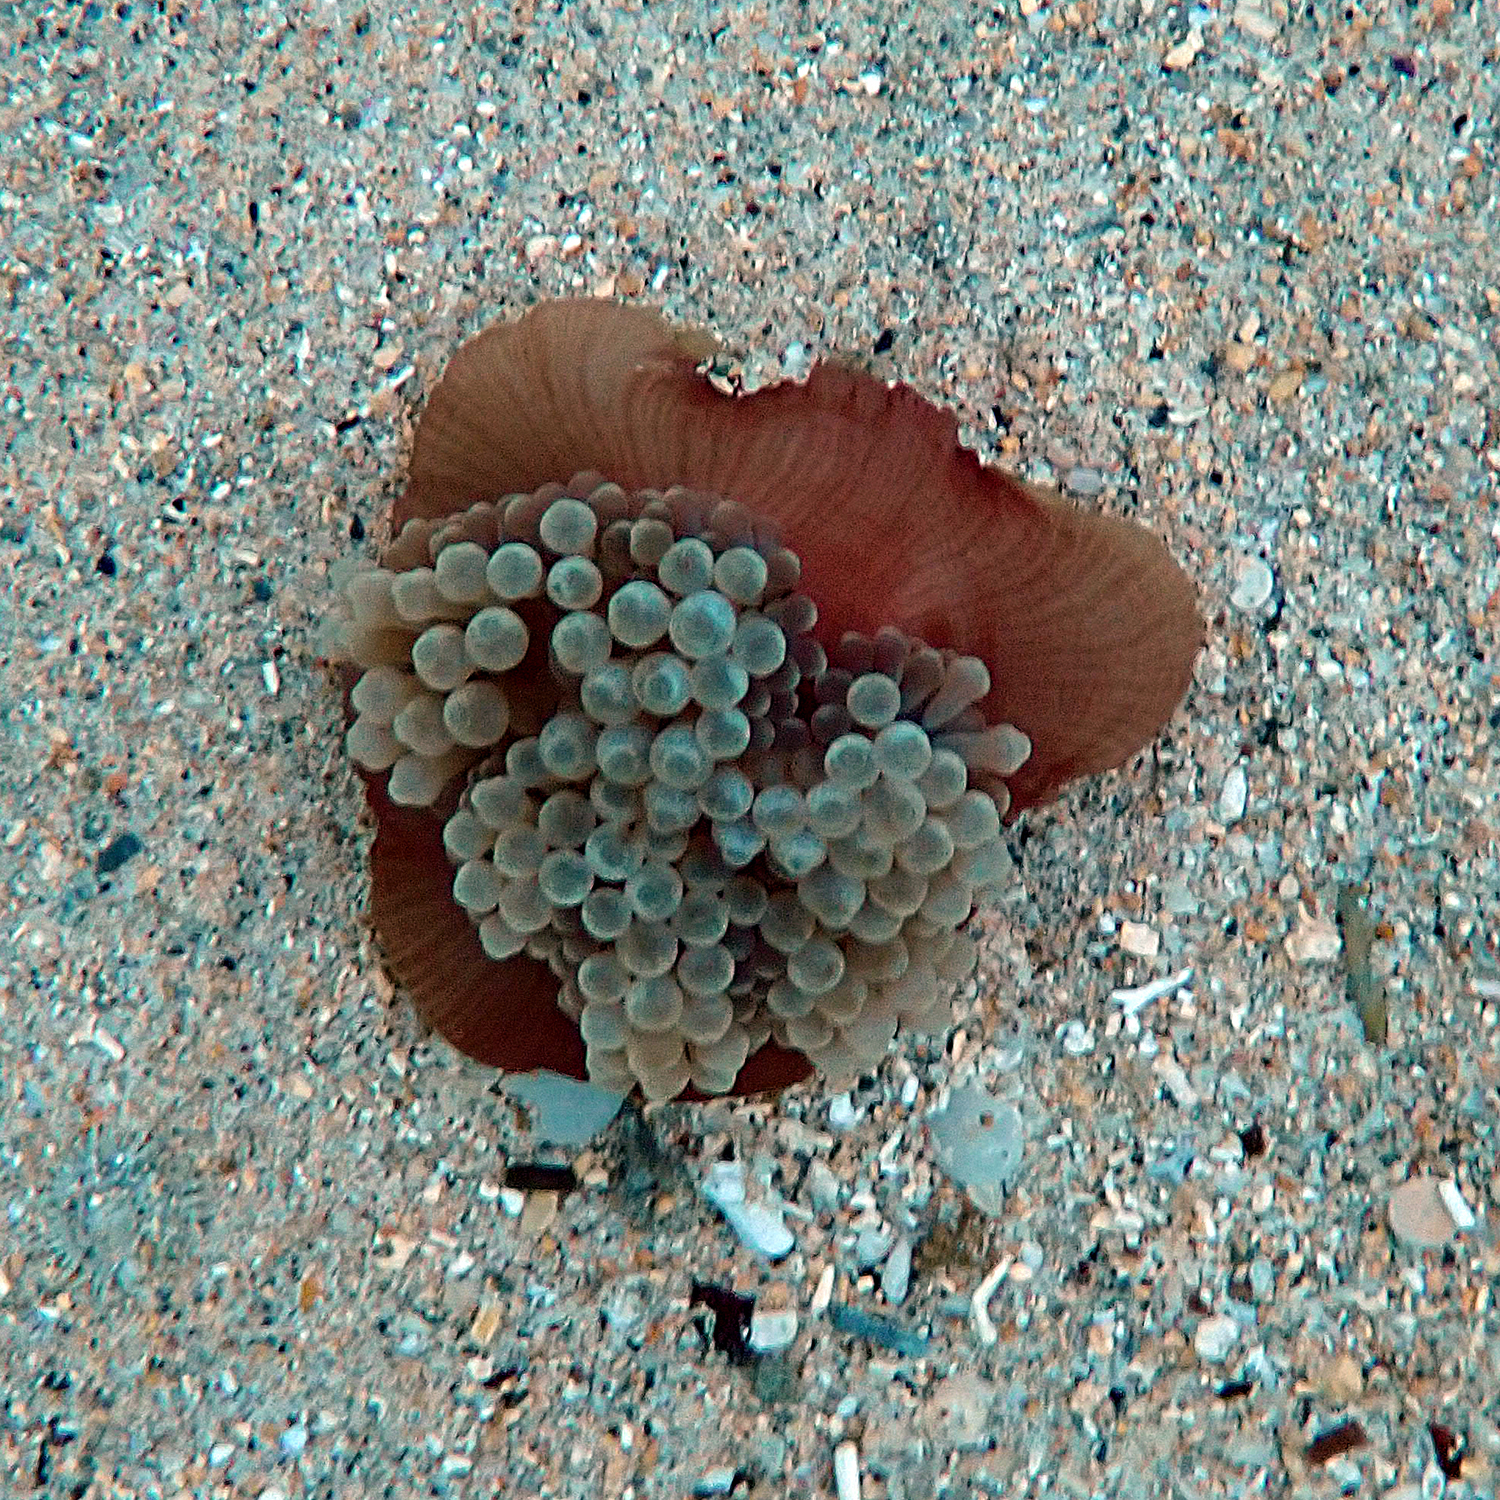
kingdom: Animalia
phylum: Cnidaria
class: Anthozoa
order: Actiniaria
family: Actiniidae
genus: Entacmaea
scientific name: Entacmaea quadricolor
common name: Bulb tentacle sea anemone
